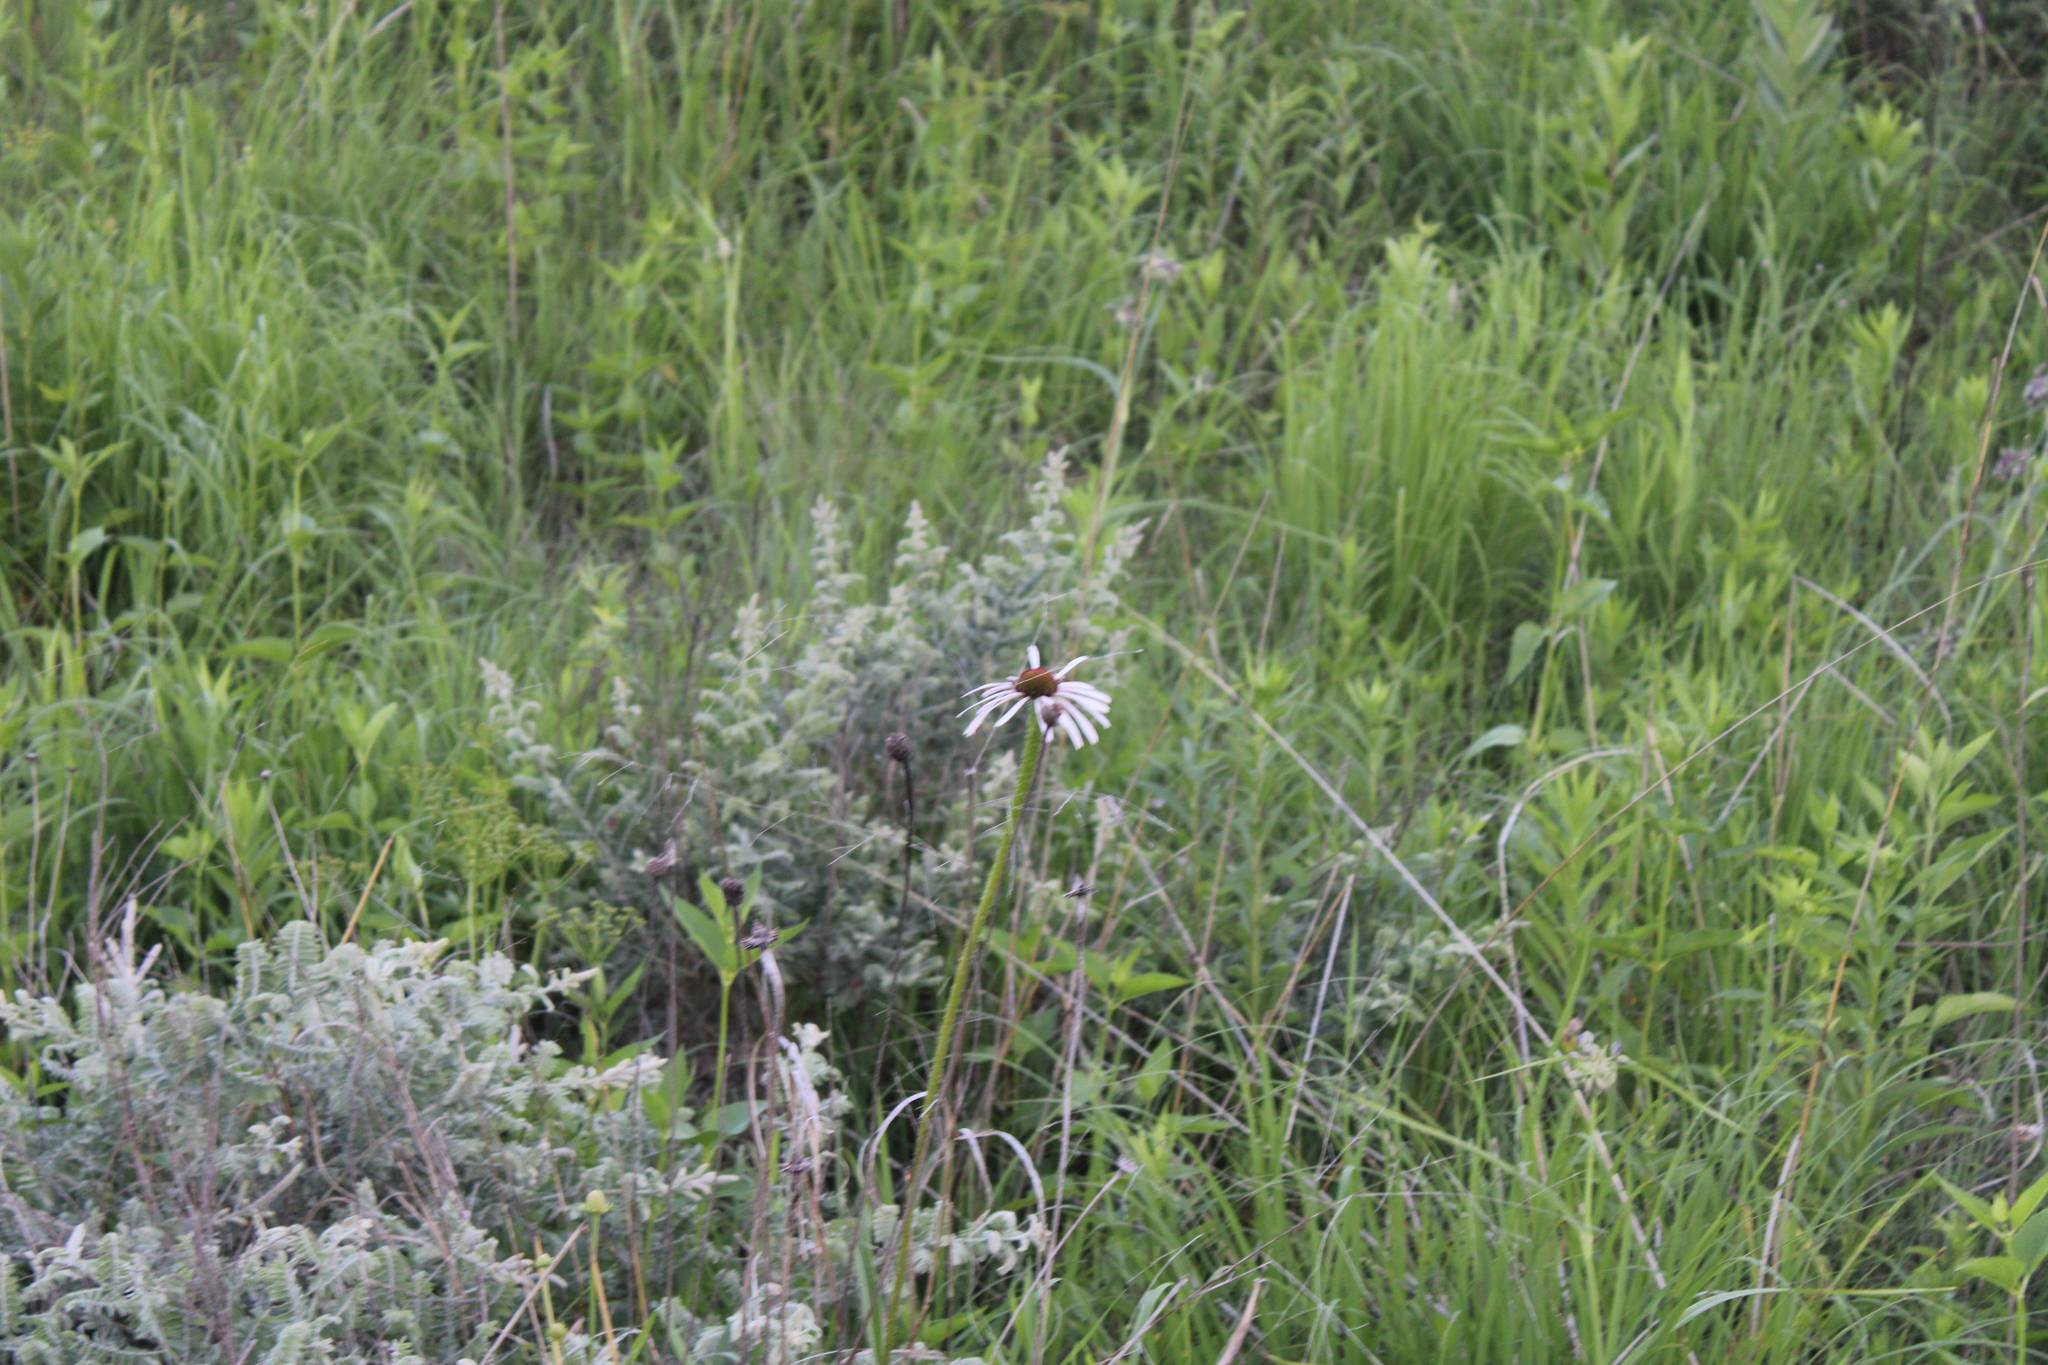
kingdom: Plantae
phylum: Tracheophyta
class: Magnoliopsida
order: Asterales
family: Asteraceae
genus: Echinacea
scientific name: Echinacea pallida
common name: Pale echinacea
